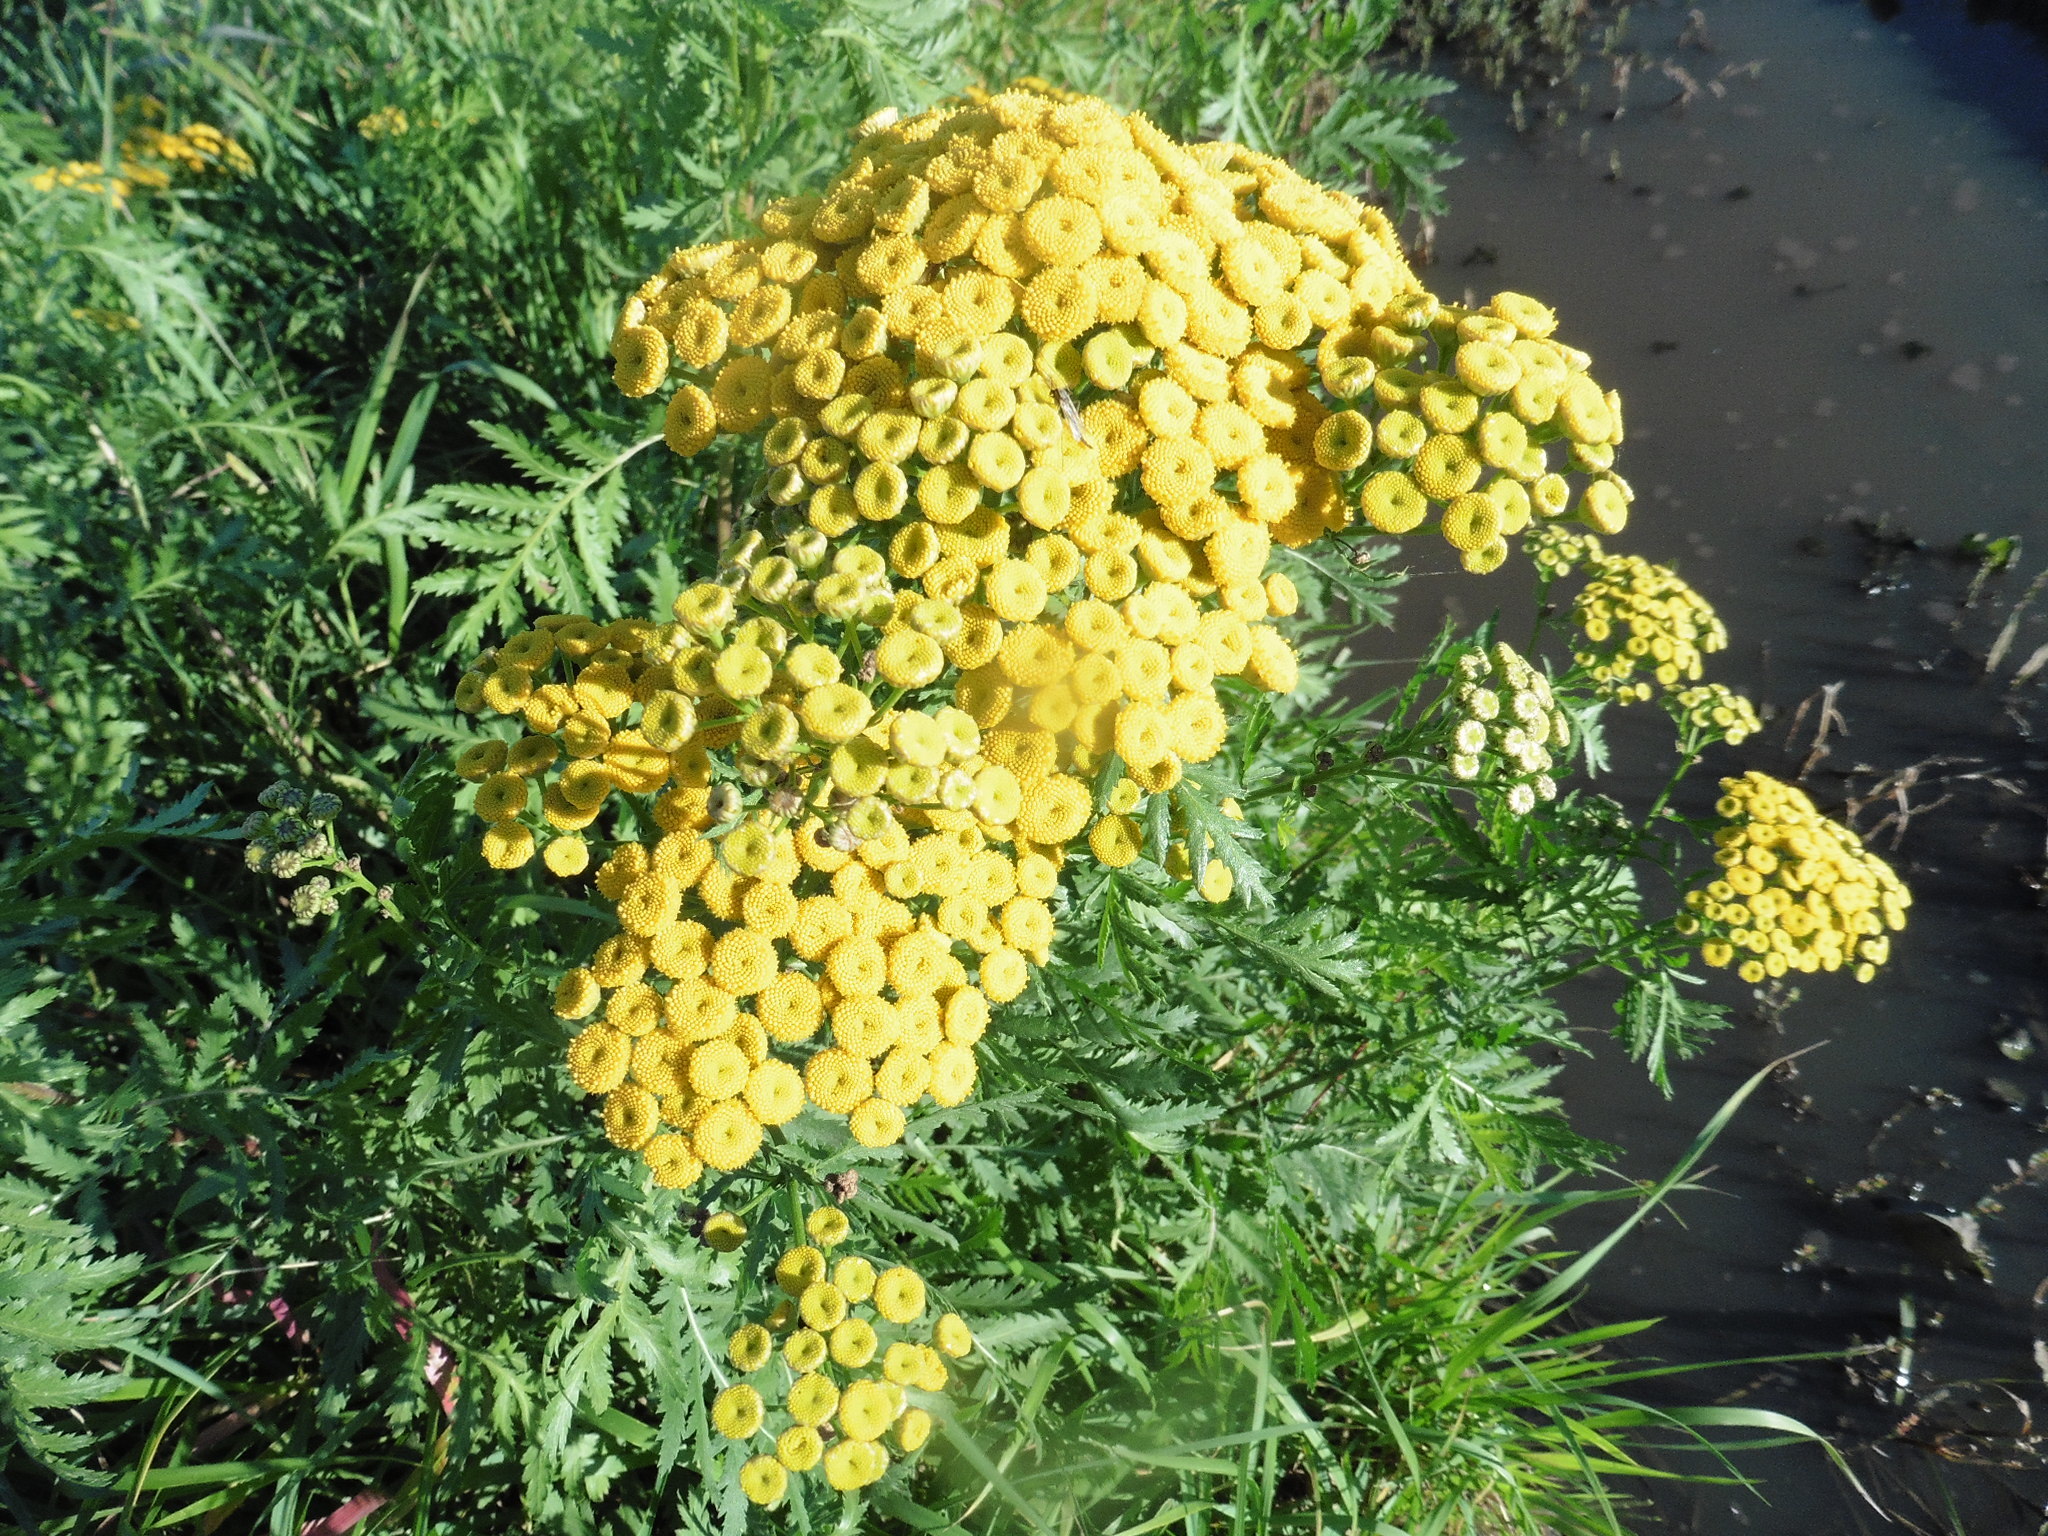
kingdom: Plantae
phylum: Tracheophyta
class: Magnoliopsida
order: Asterales
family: Asteraceae
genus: Tanacetum
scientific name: Tanacetum vulgare
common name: Common tansy
